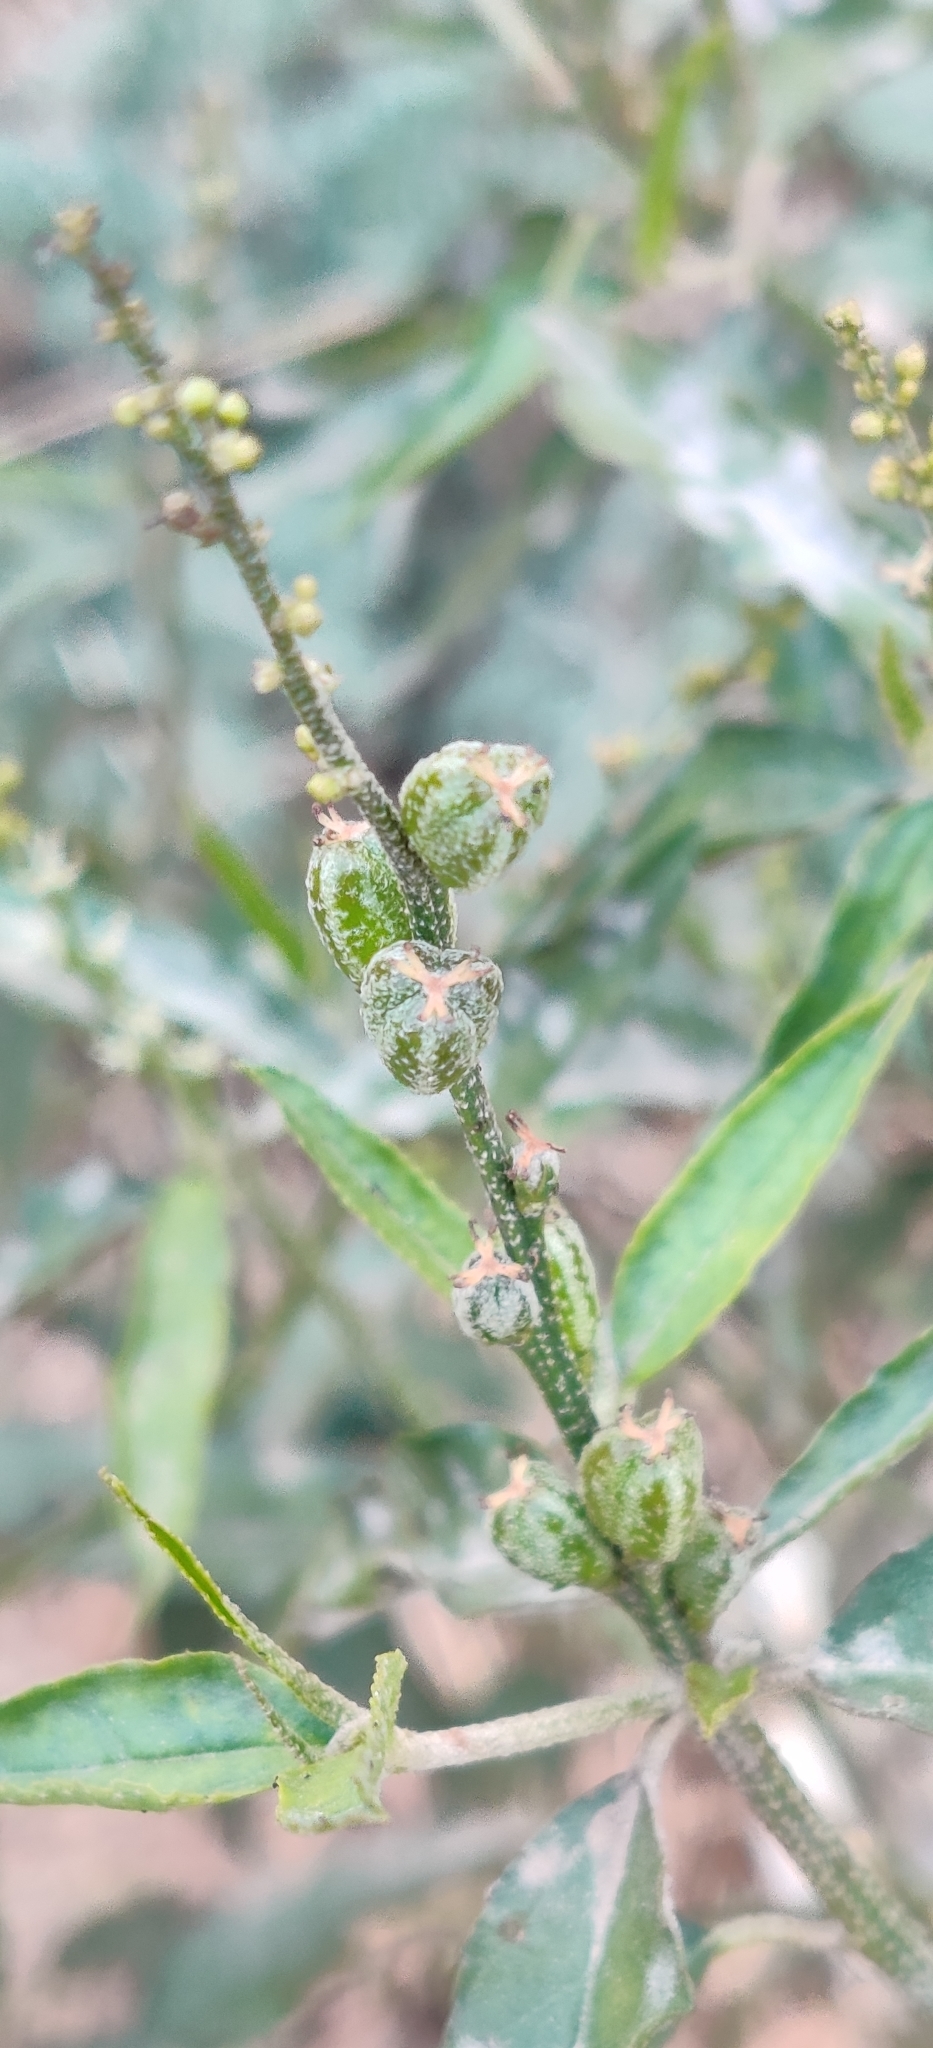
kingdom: Plantae
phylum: Tracheophyta
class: Magnoliopsida
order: Malpighiales
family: Euphorbiaceae
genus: Croton
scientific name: Croton bonplandianus
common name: Bonpland's croton
